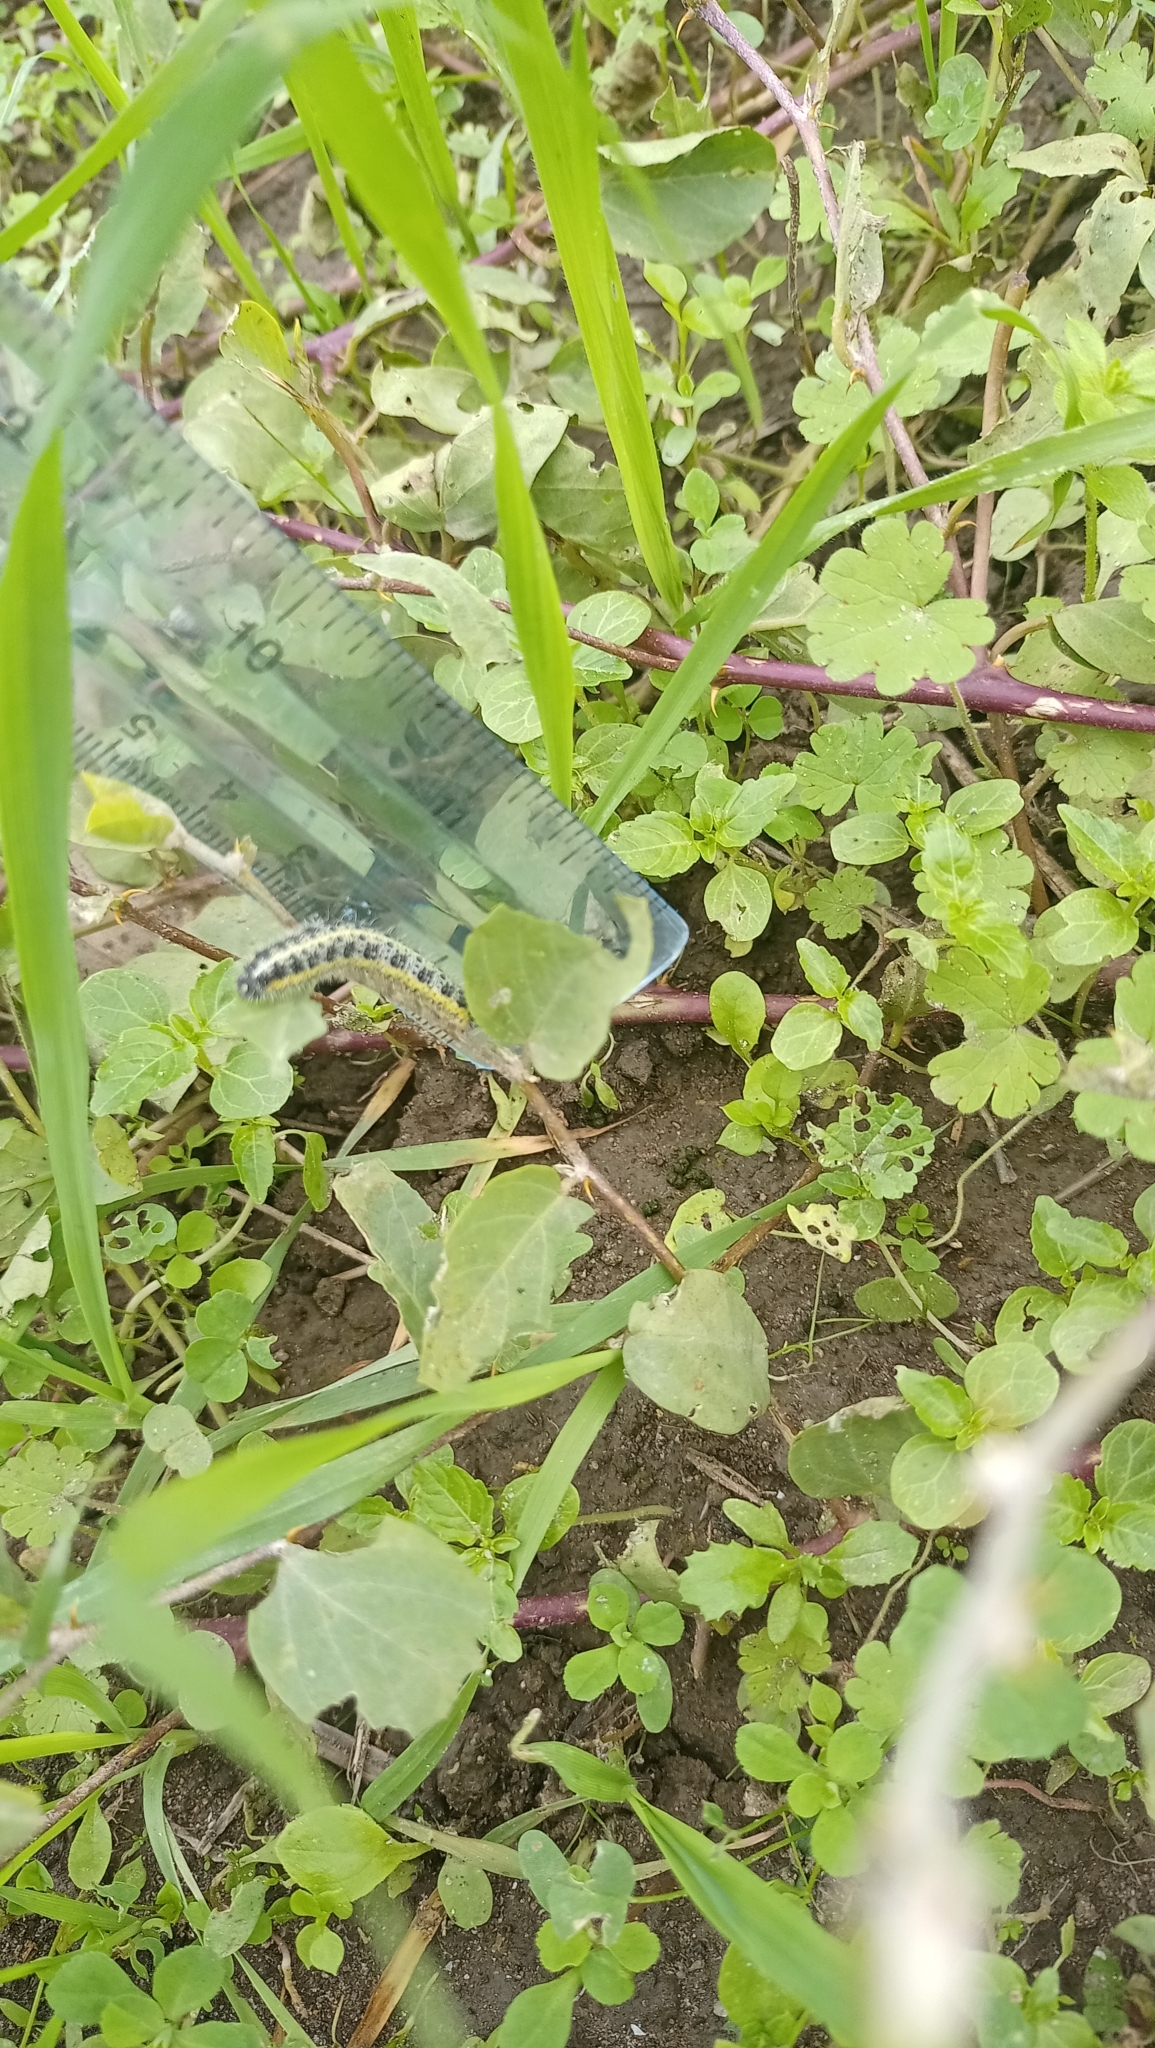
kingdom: Animalia
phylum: Arthropoda
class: Insecta
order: Lepidoptera
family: Pieridae
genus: Pieris
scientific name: Pieris brassicae
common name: Large white
